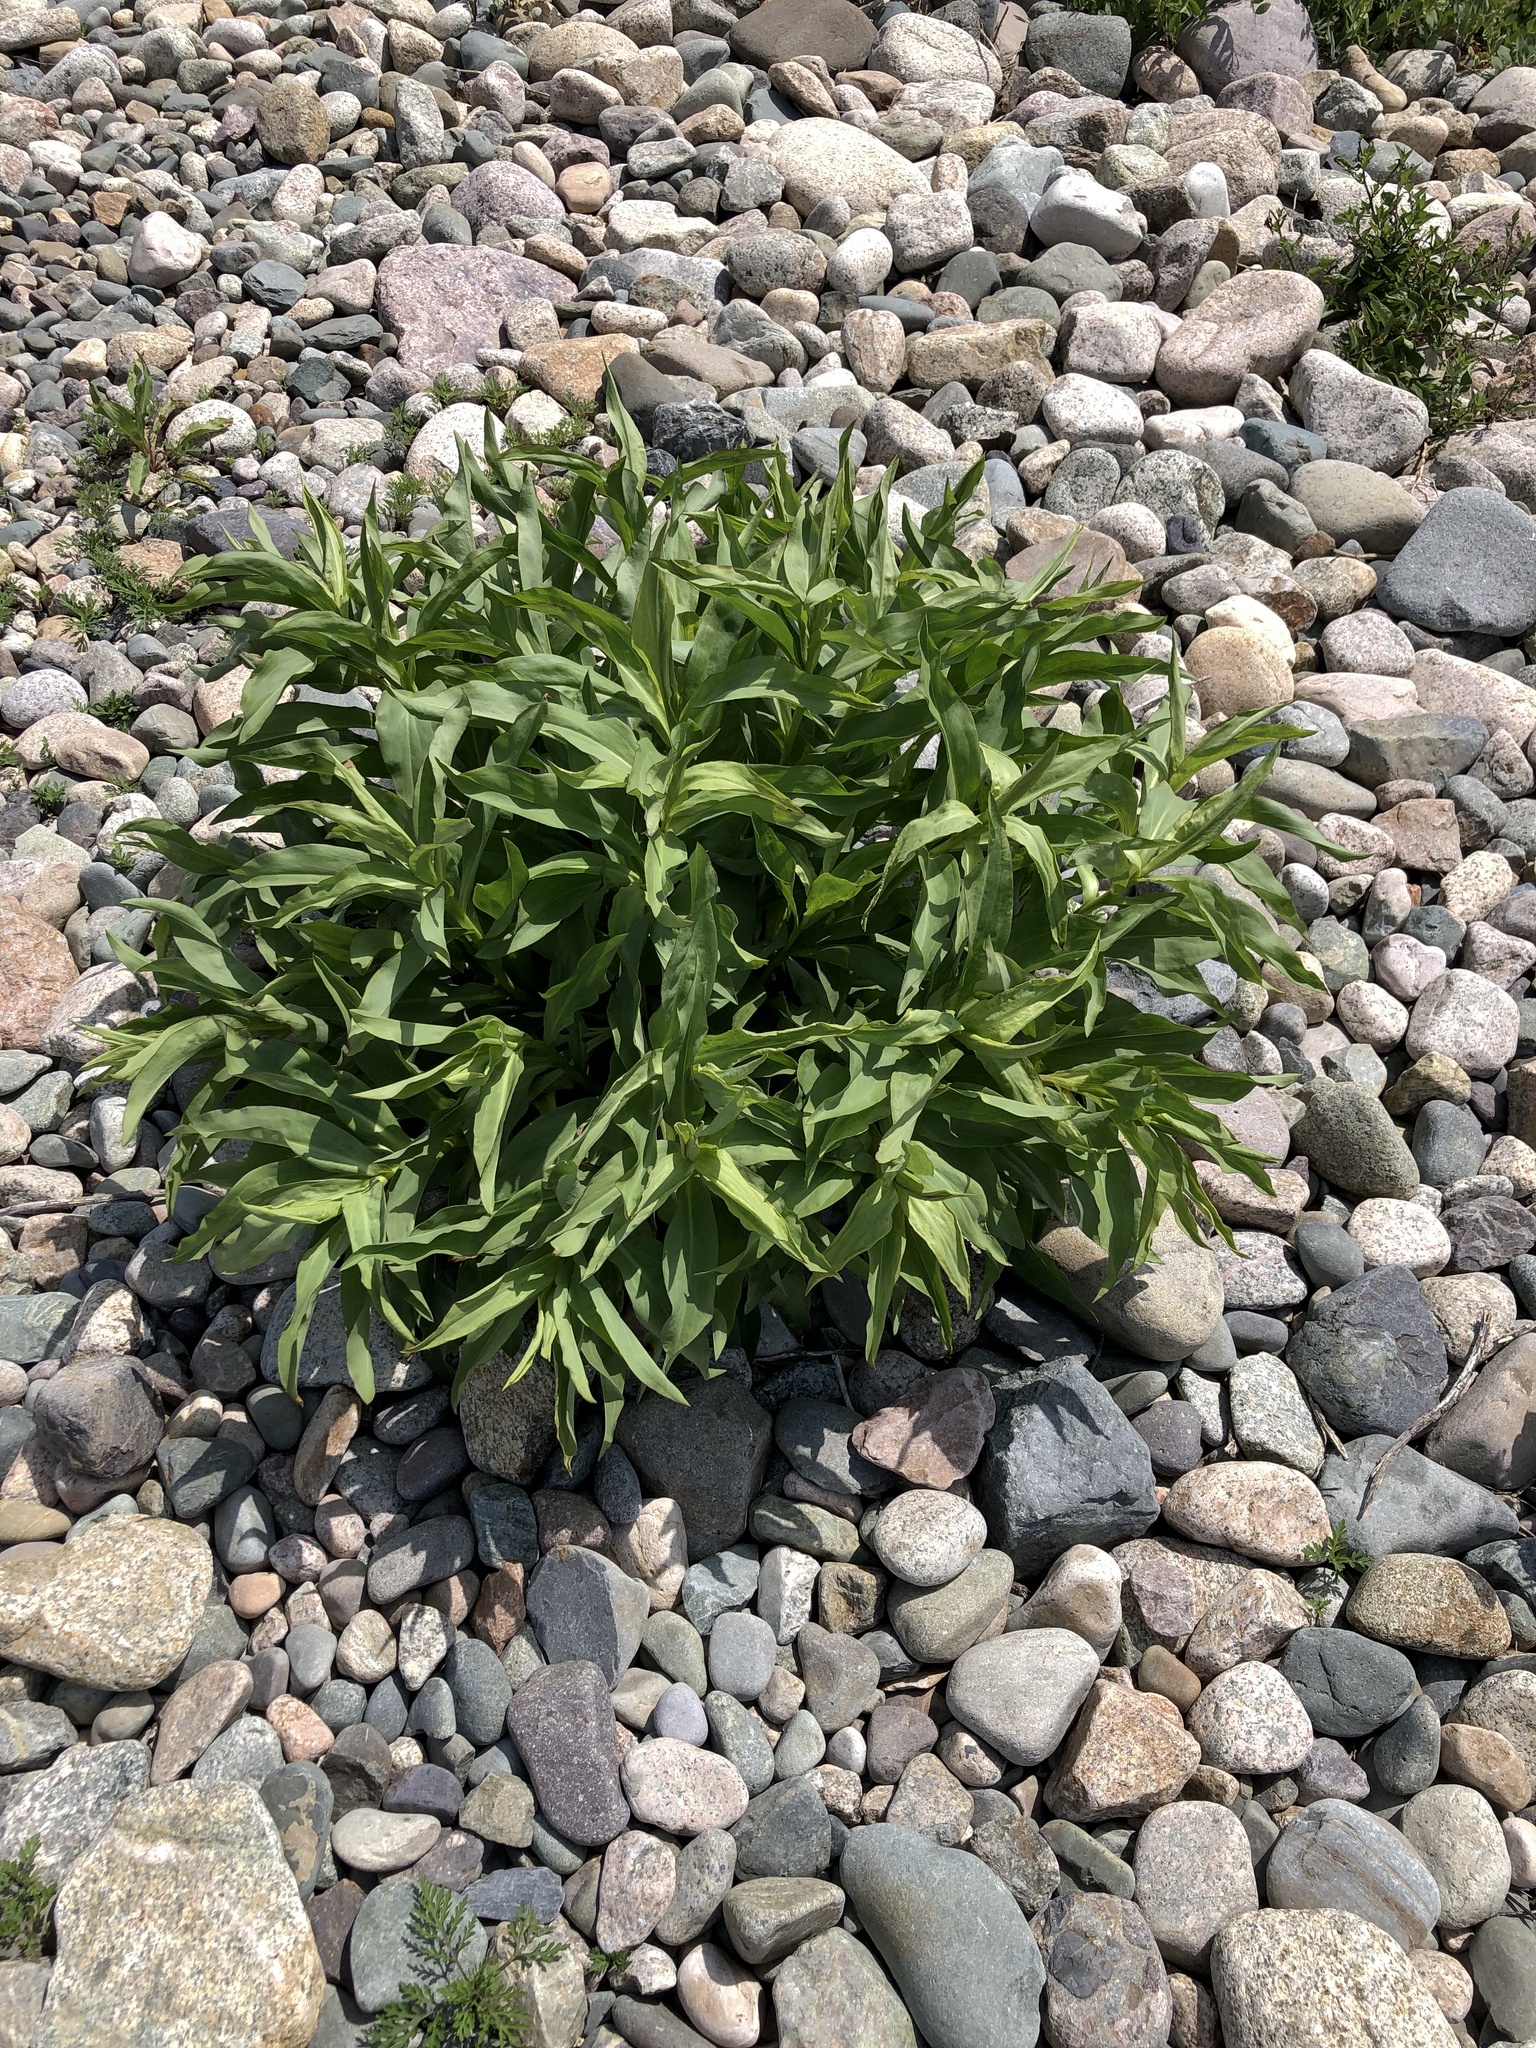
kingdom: Plantae
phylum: Tracheophyta
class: Magnoliopsida
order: Asterales
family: Asteraceae
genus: Solidago
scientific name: Solidago sempervirens
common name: Salt-marsh goldenrod
